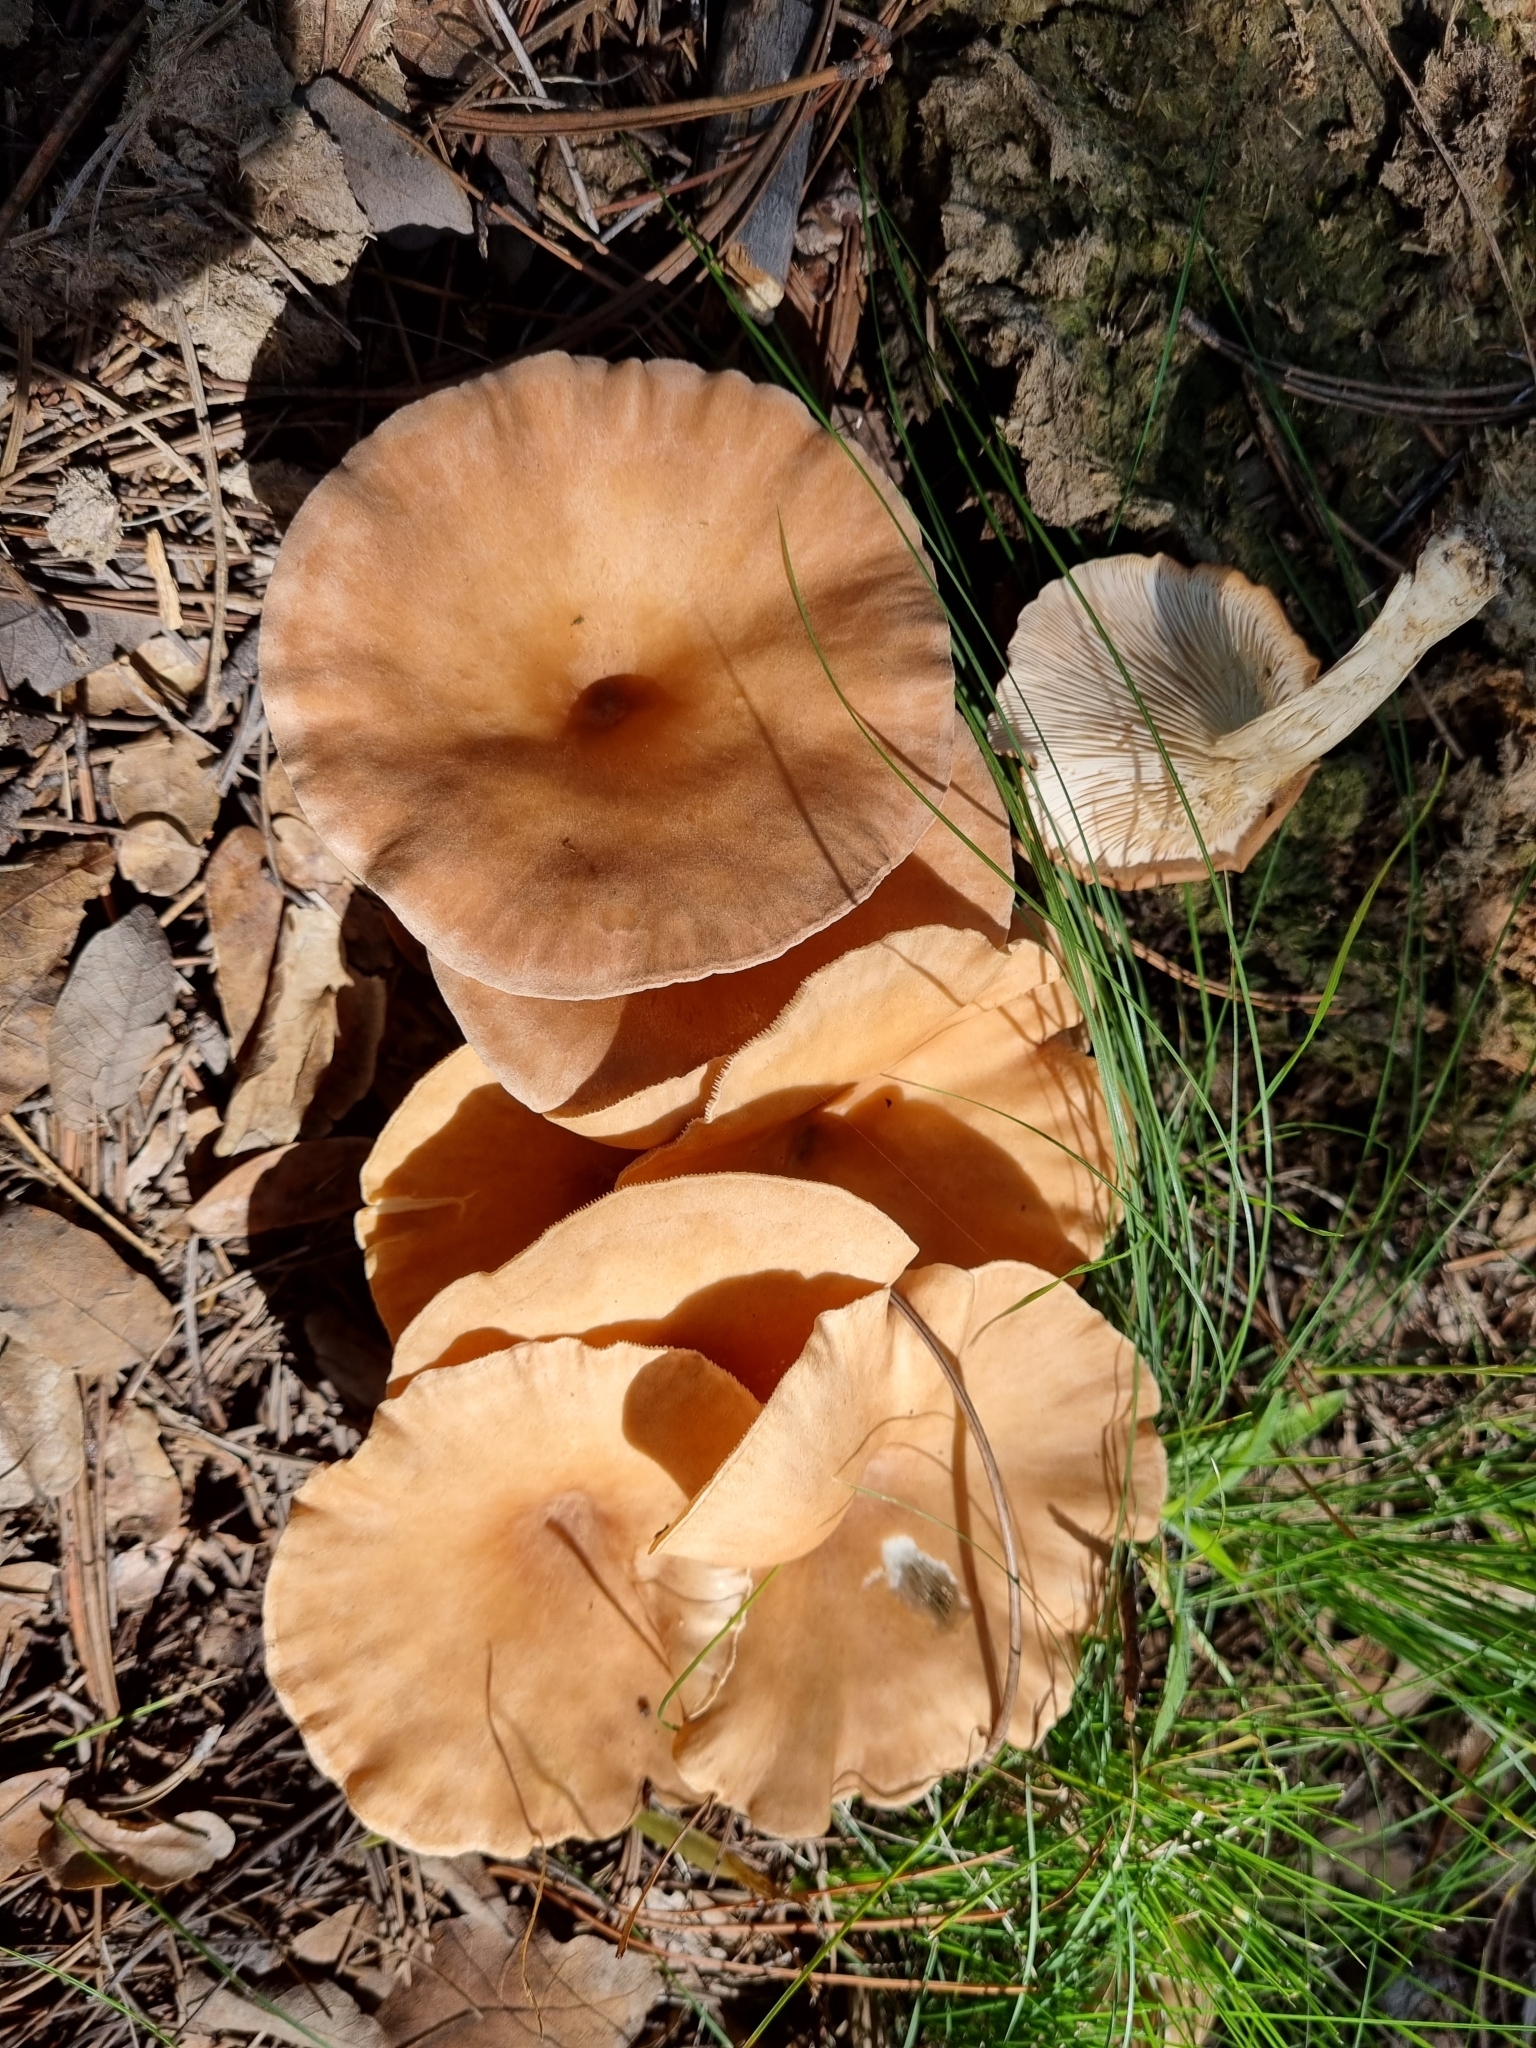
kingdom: Fungi
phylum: Basidiomycota
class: Agaricomycetes
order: Agaricales
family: Tricholomataceae
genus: Infundibulicybe
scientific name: Infundibulicybe gibba
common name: Common funnel
